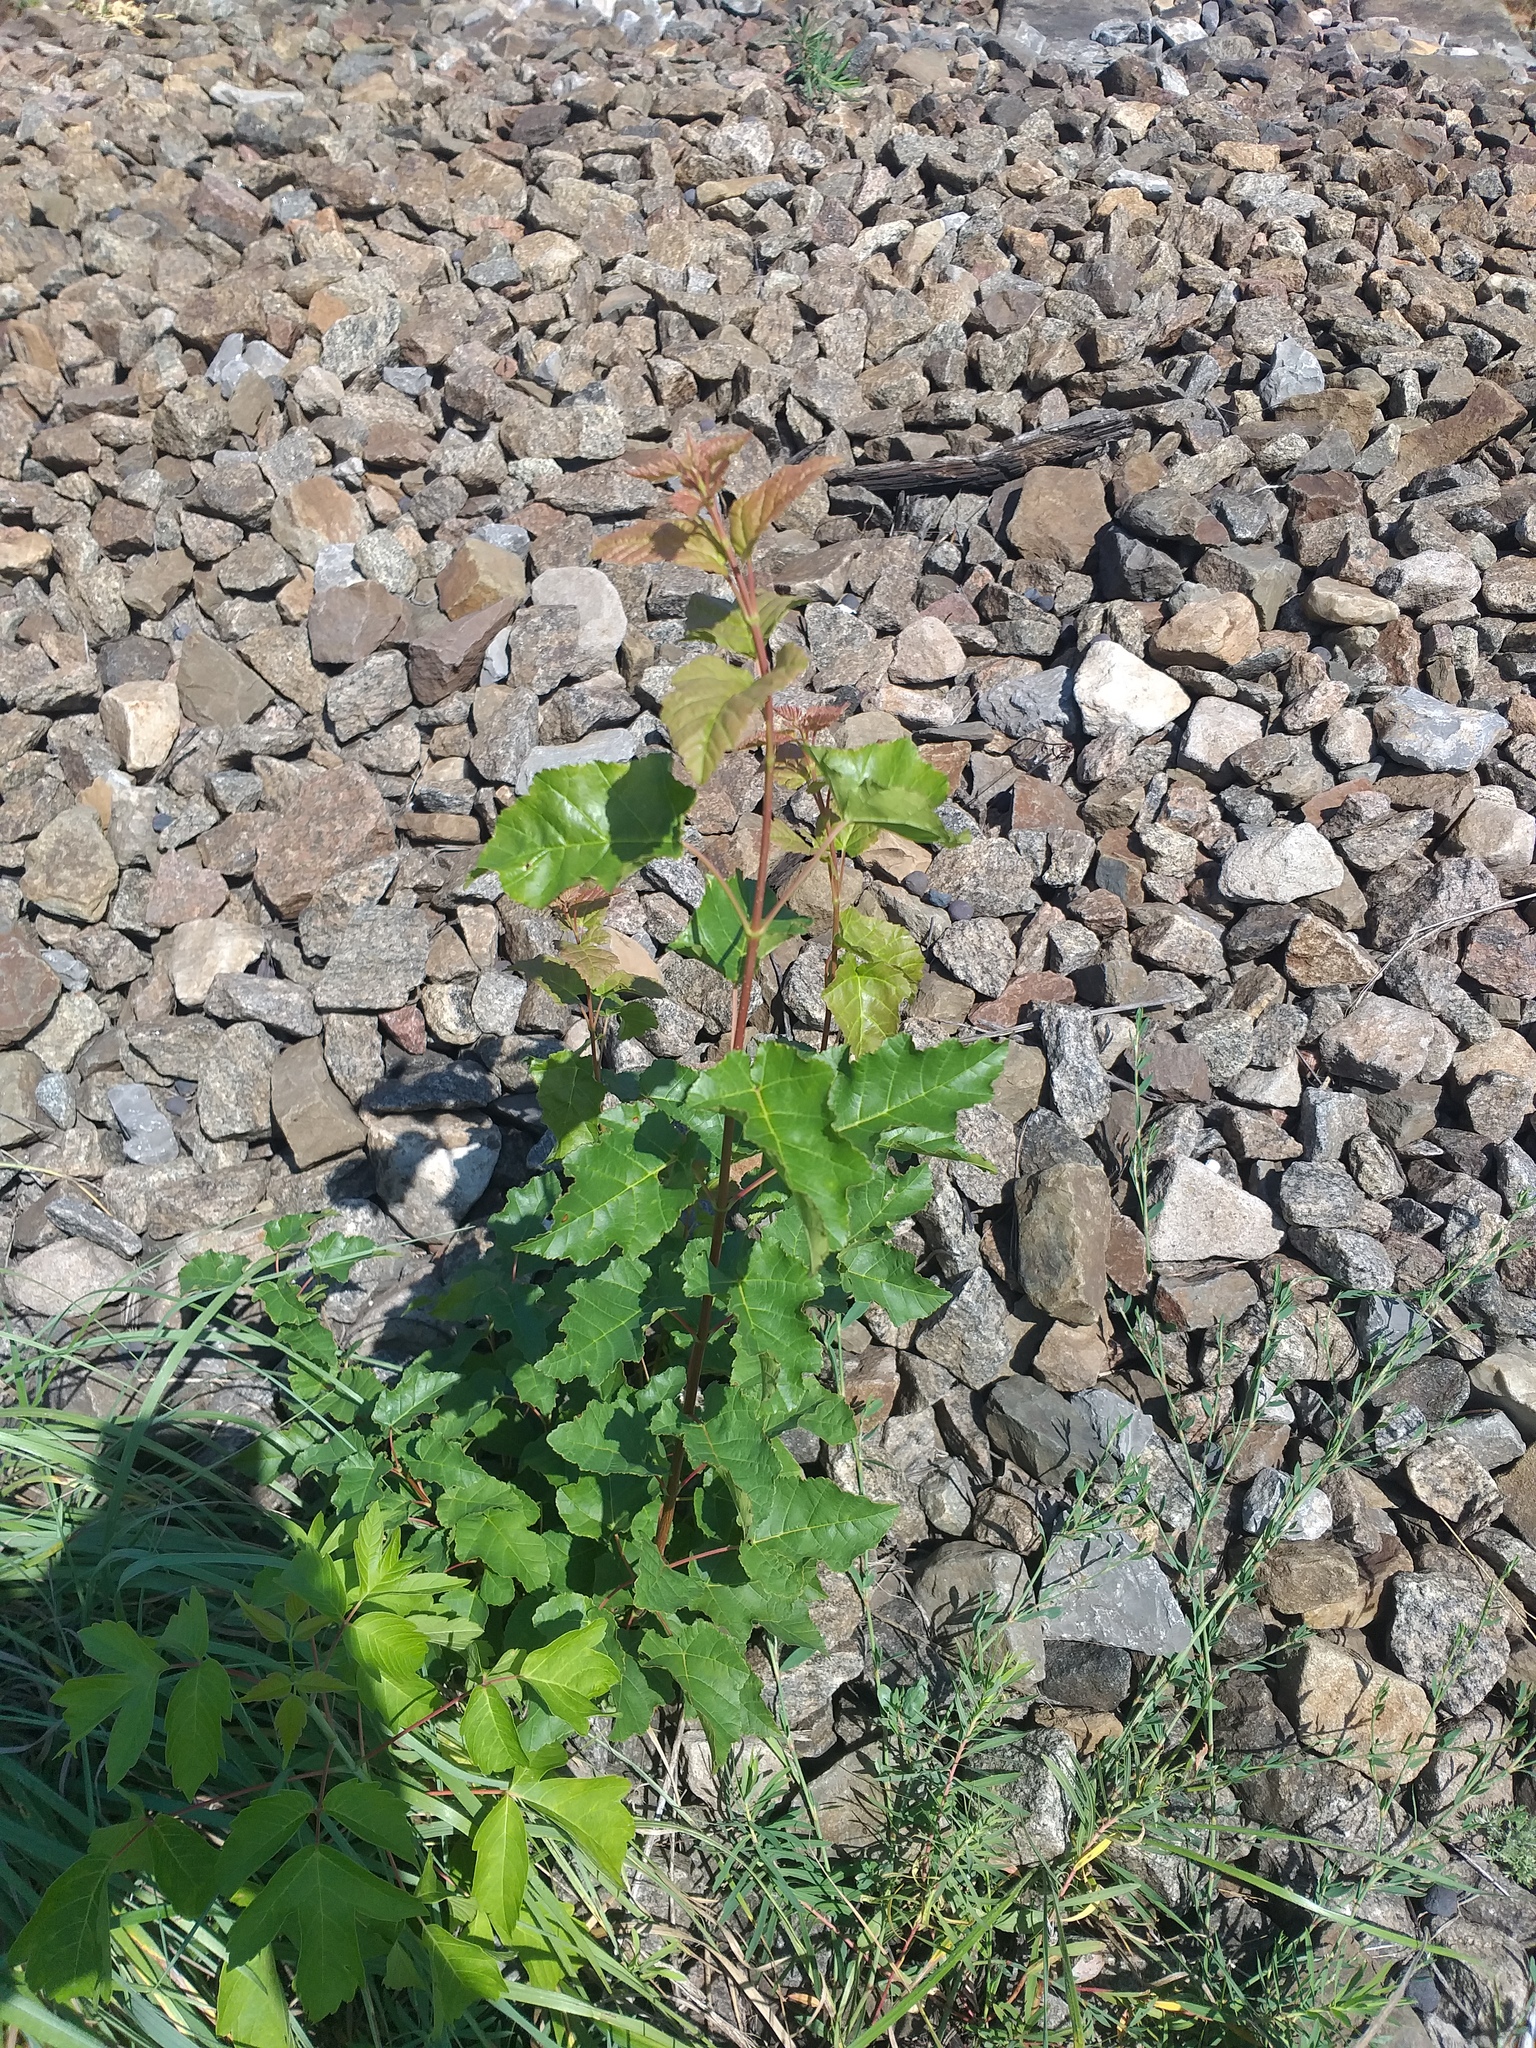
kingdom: Plantae
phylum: Tracheophyta
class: Magnoliopsida
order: Sapindales
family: Sapindaceae
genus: Acer
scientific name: Acer tataricum
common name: Tartar maple
